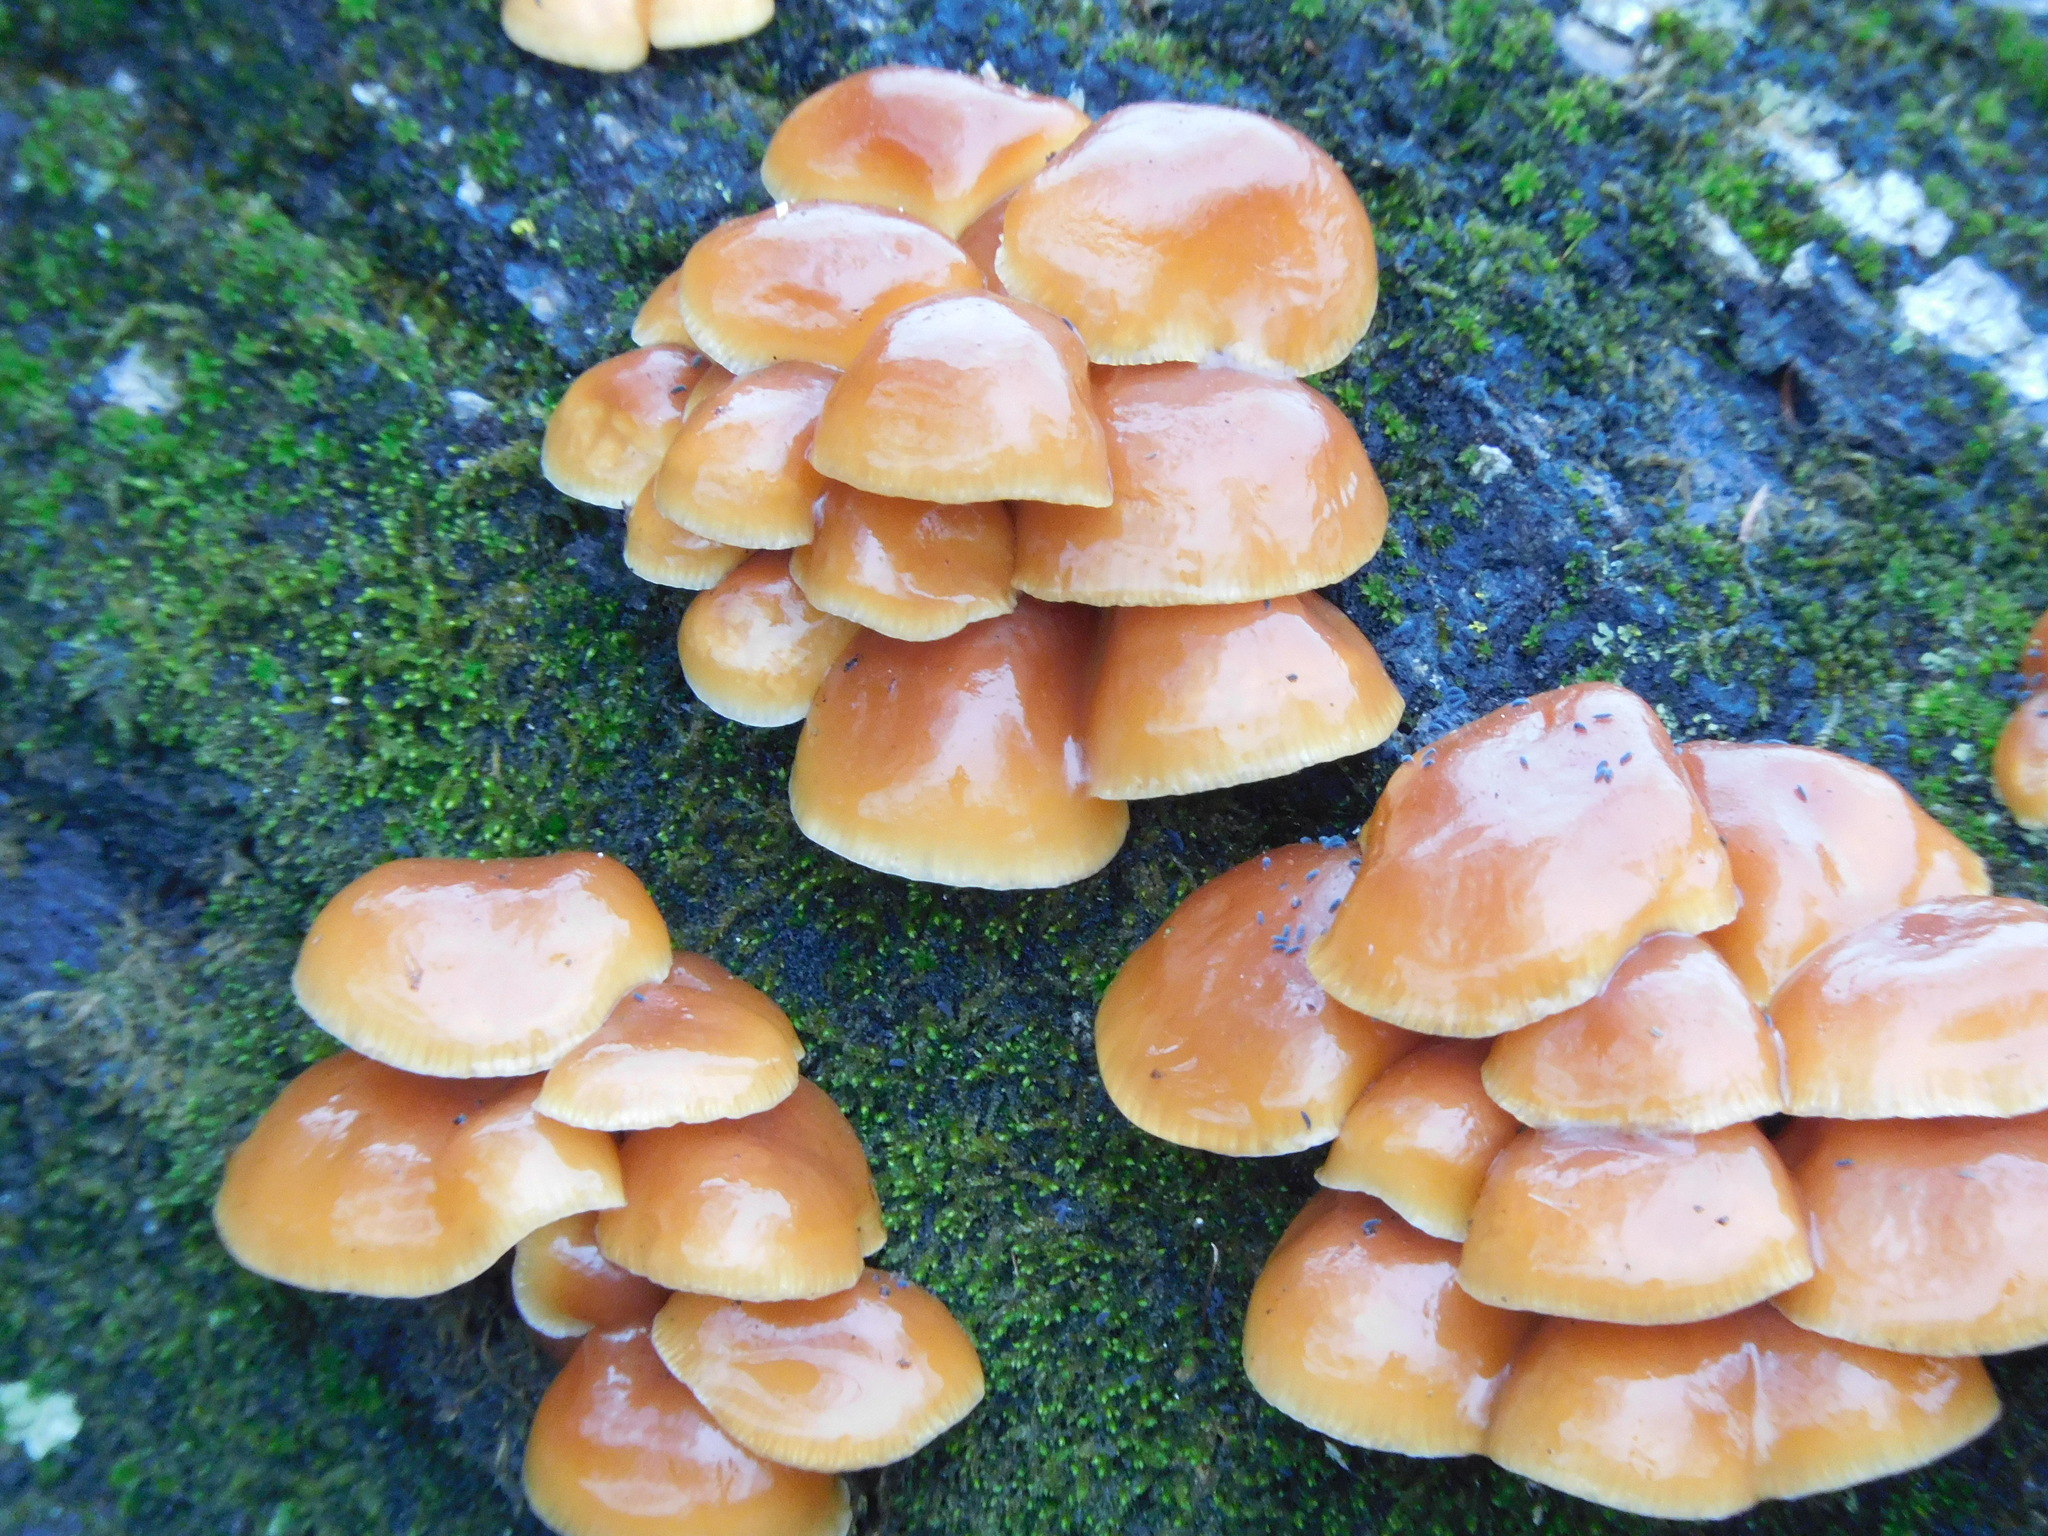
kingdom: Fungi
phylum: Basidiomycota
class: Agaricomycetes
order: Agaricales
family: Physalacriaceae
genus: Flammulina
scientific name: Flammulina velutipes
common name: Velvet shank
